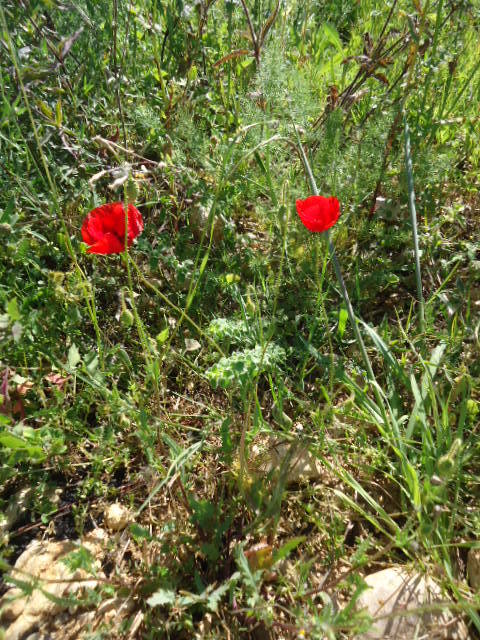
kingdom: Plantae
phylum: Tracheophyta
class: Magnoliopsida
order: Ranunculales
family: Papaveraceae
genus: Papaver
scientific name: Papaver rhoeas
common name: Corn poppy
